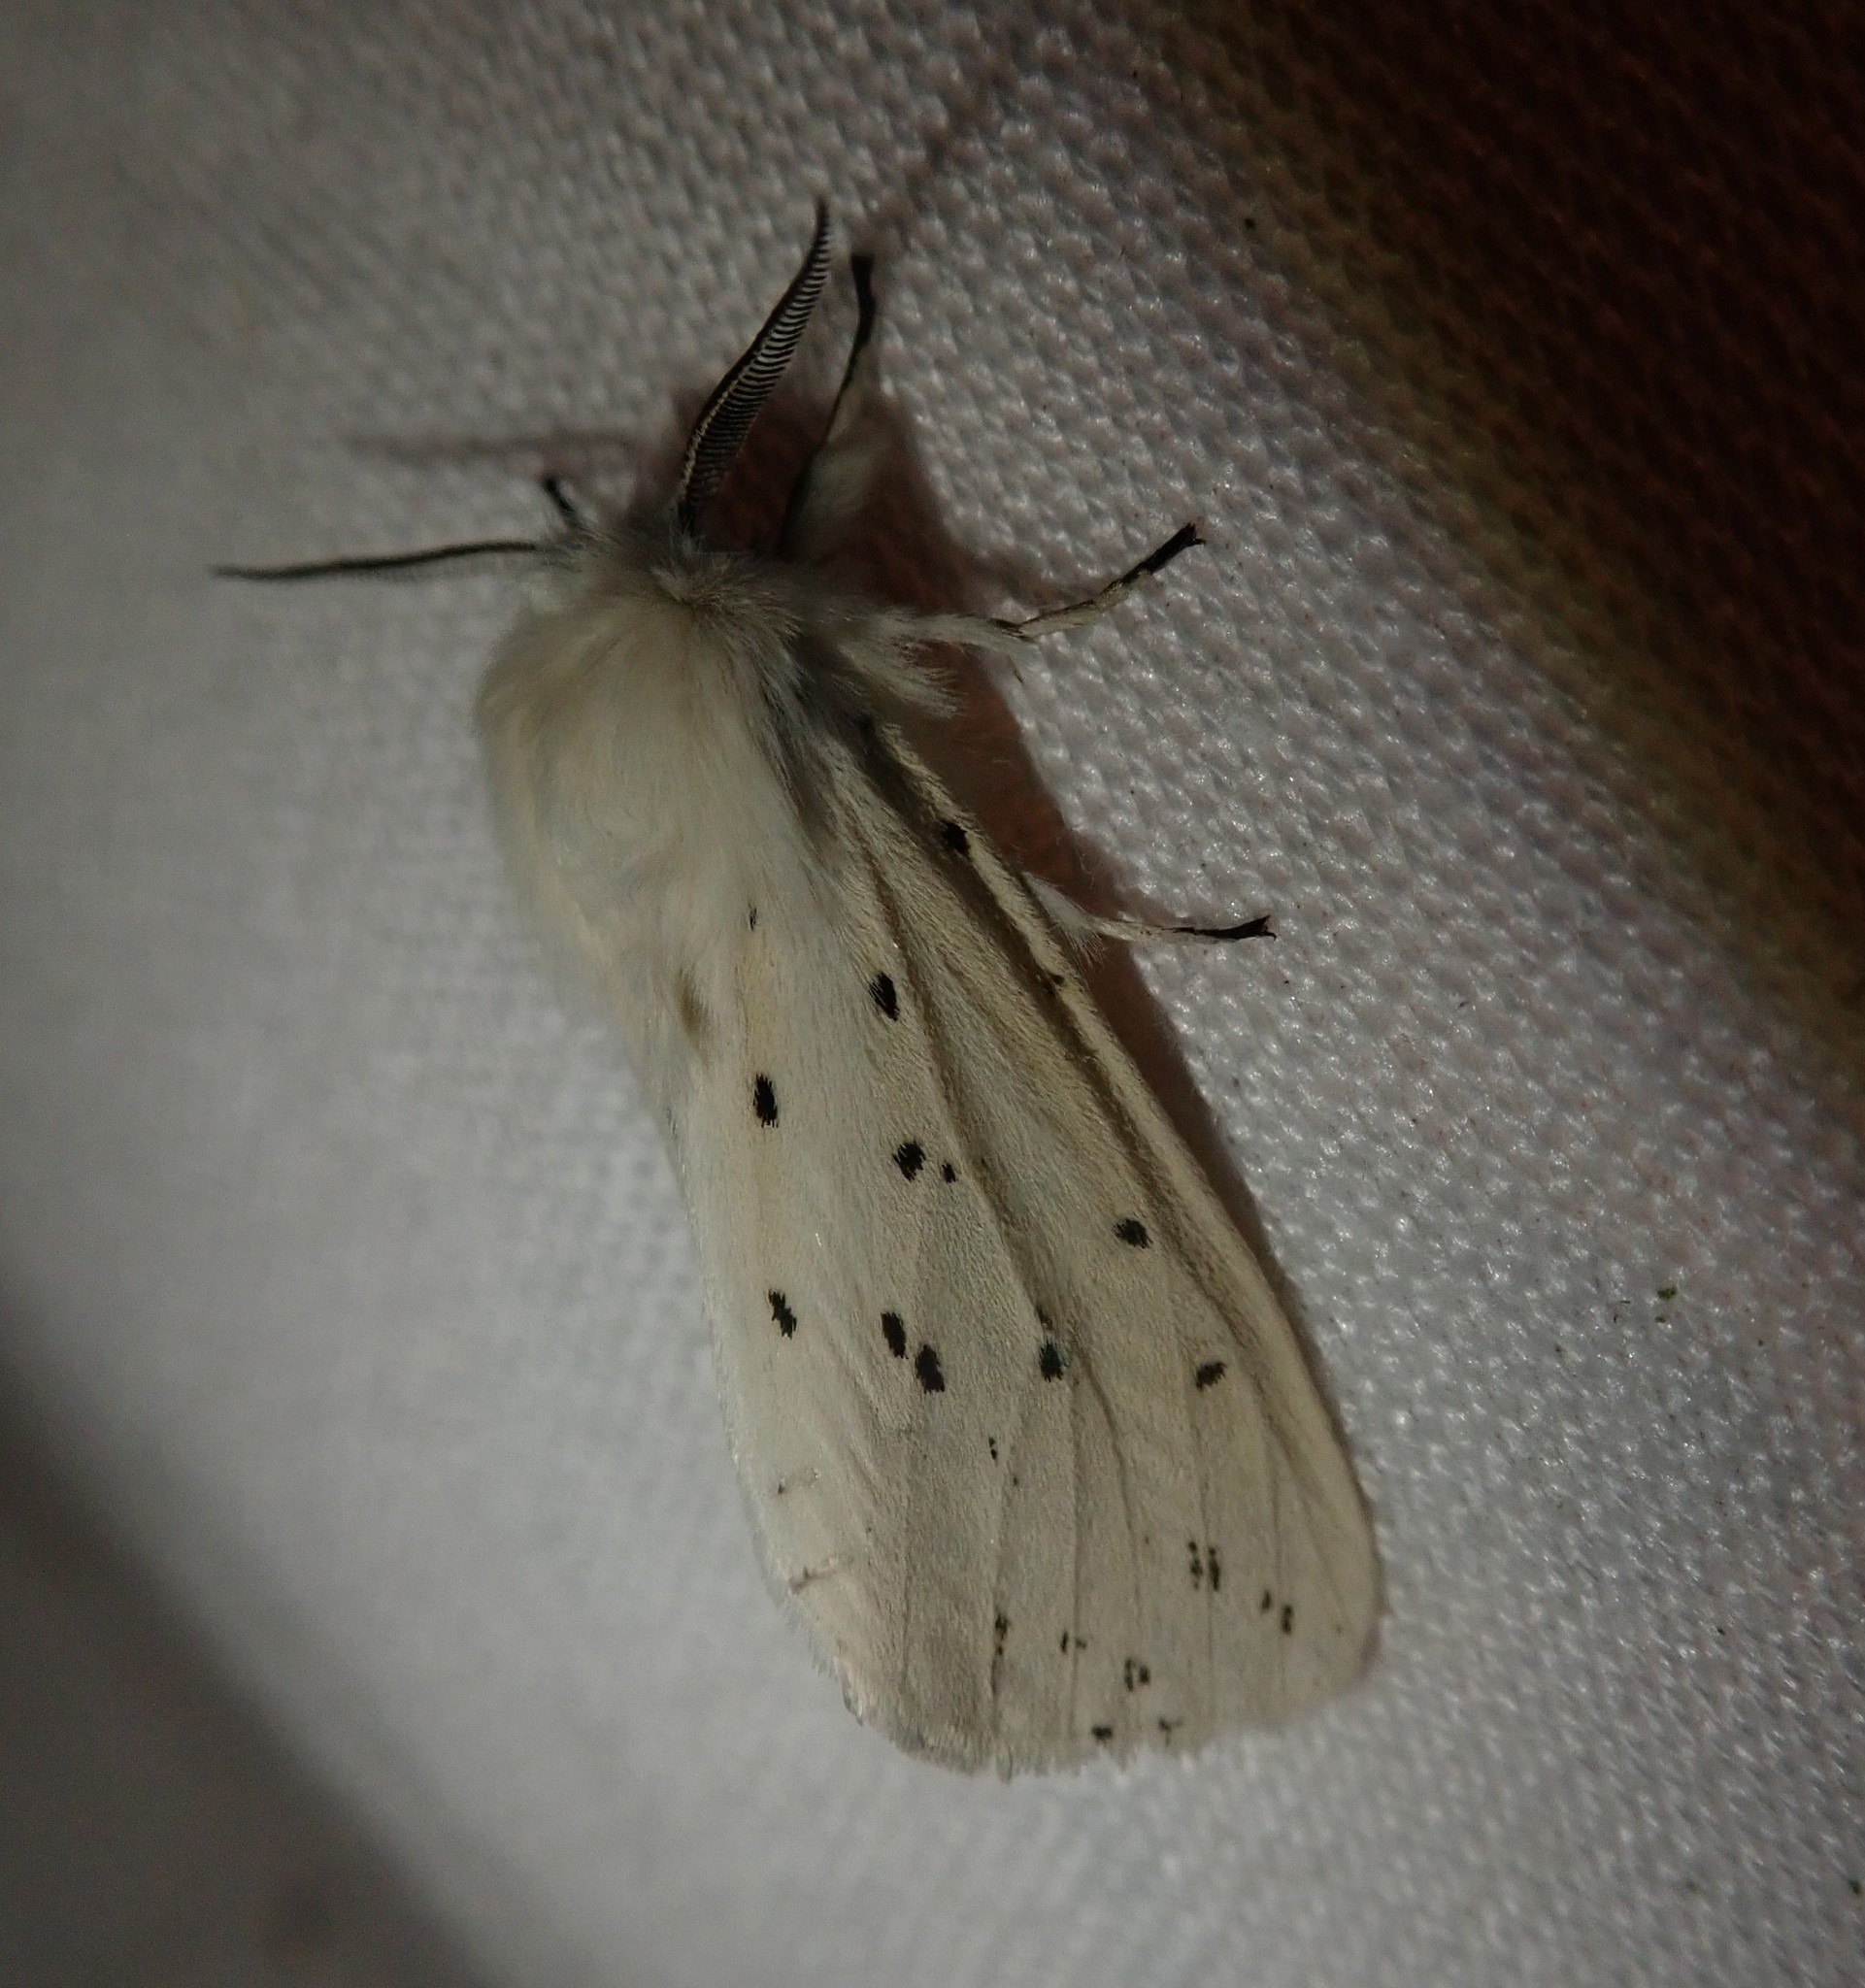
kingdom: Animalia
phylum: Arthropoda
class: Insecta
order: Lepidoptera
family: Erebidae
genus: Spilosoma
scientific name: Spilosoma lubricipeda
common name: White ermine
